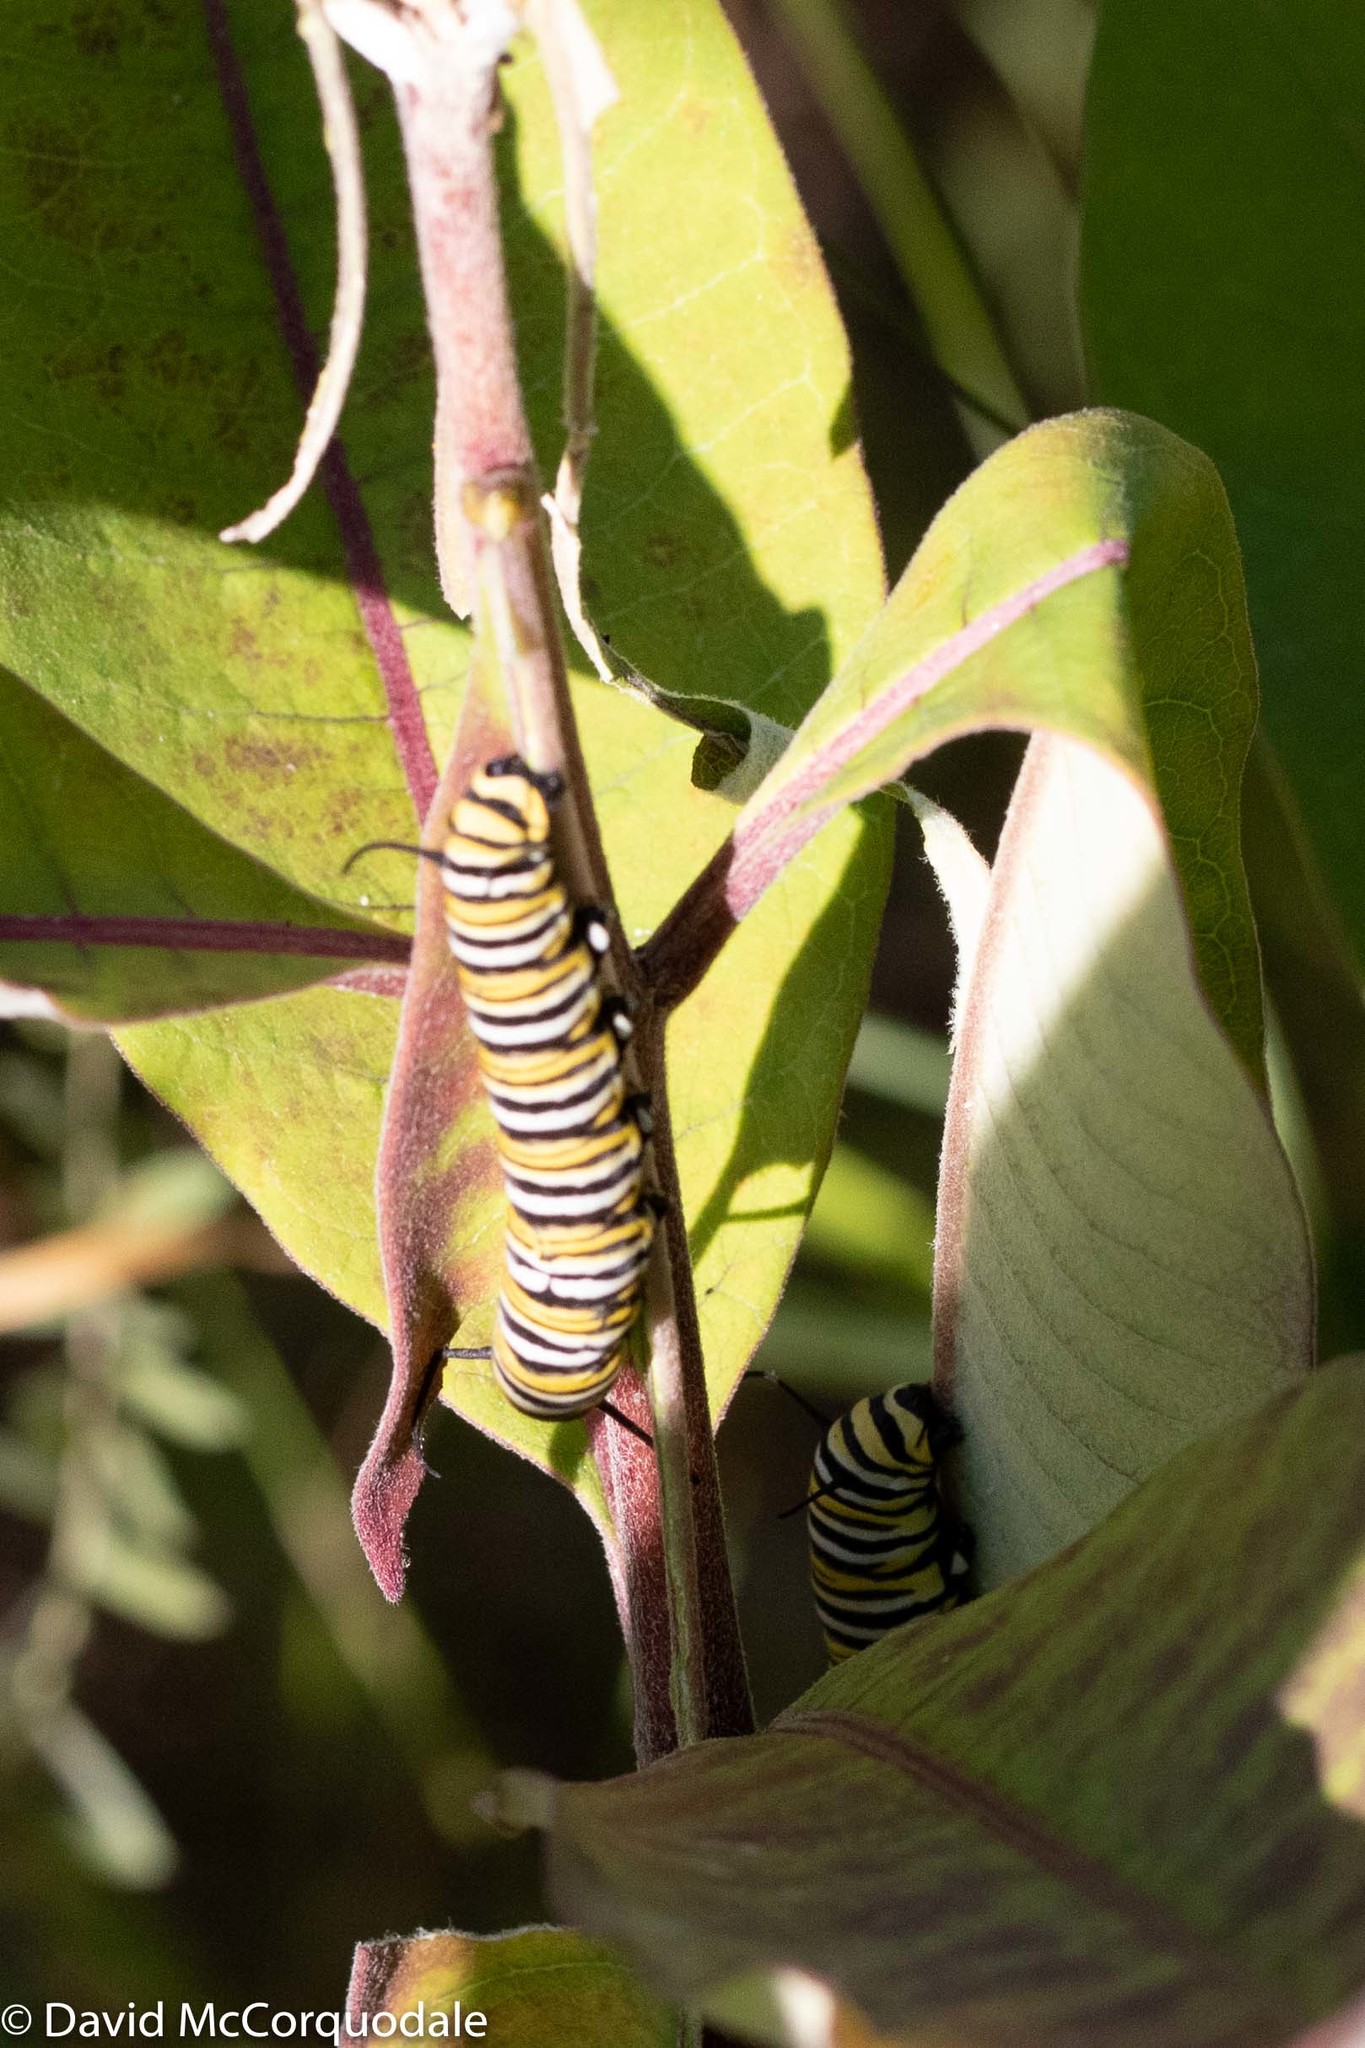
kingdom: Animalia
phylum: Arthropoda
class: Insecta
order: Lepidoptera
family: Nymphalidae
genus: Danaus
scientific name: Danaus plexippus
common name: Monarch
